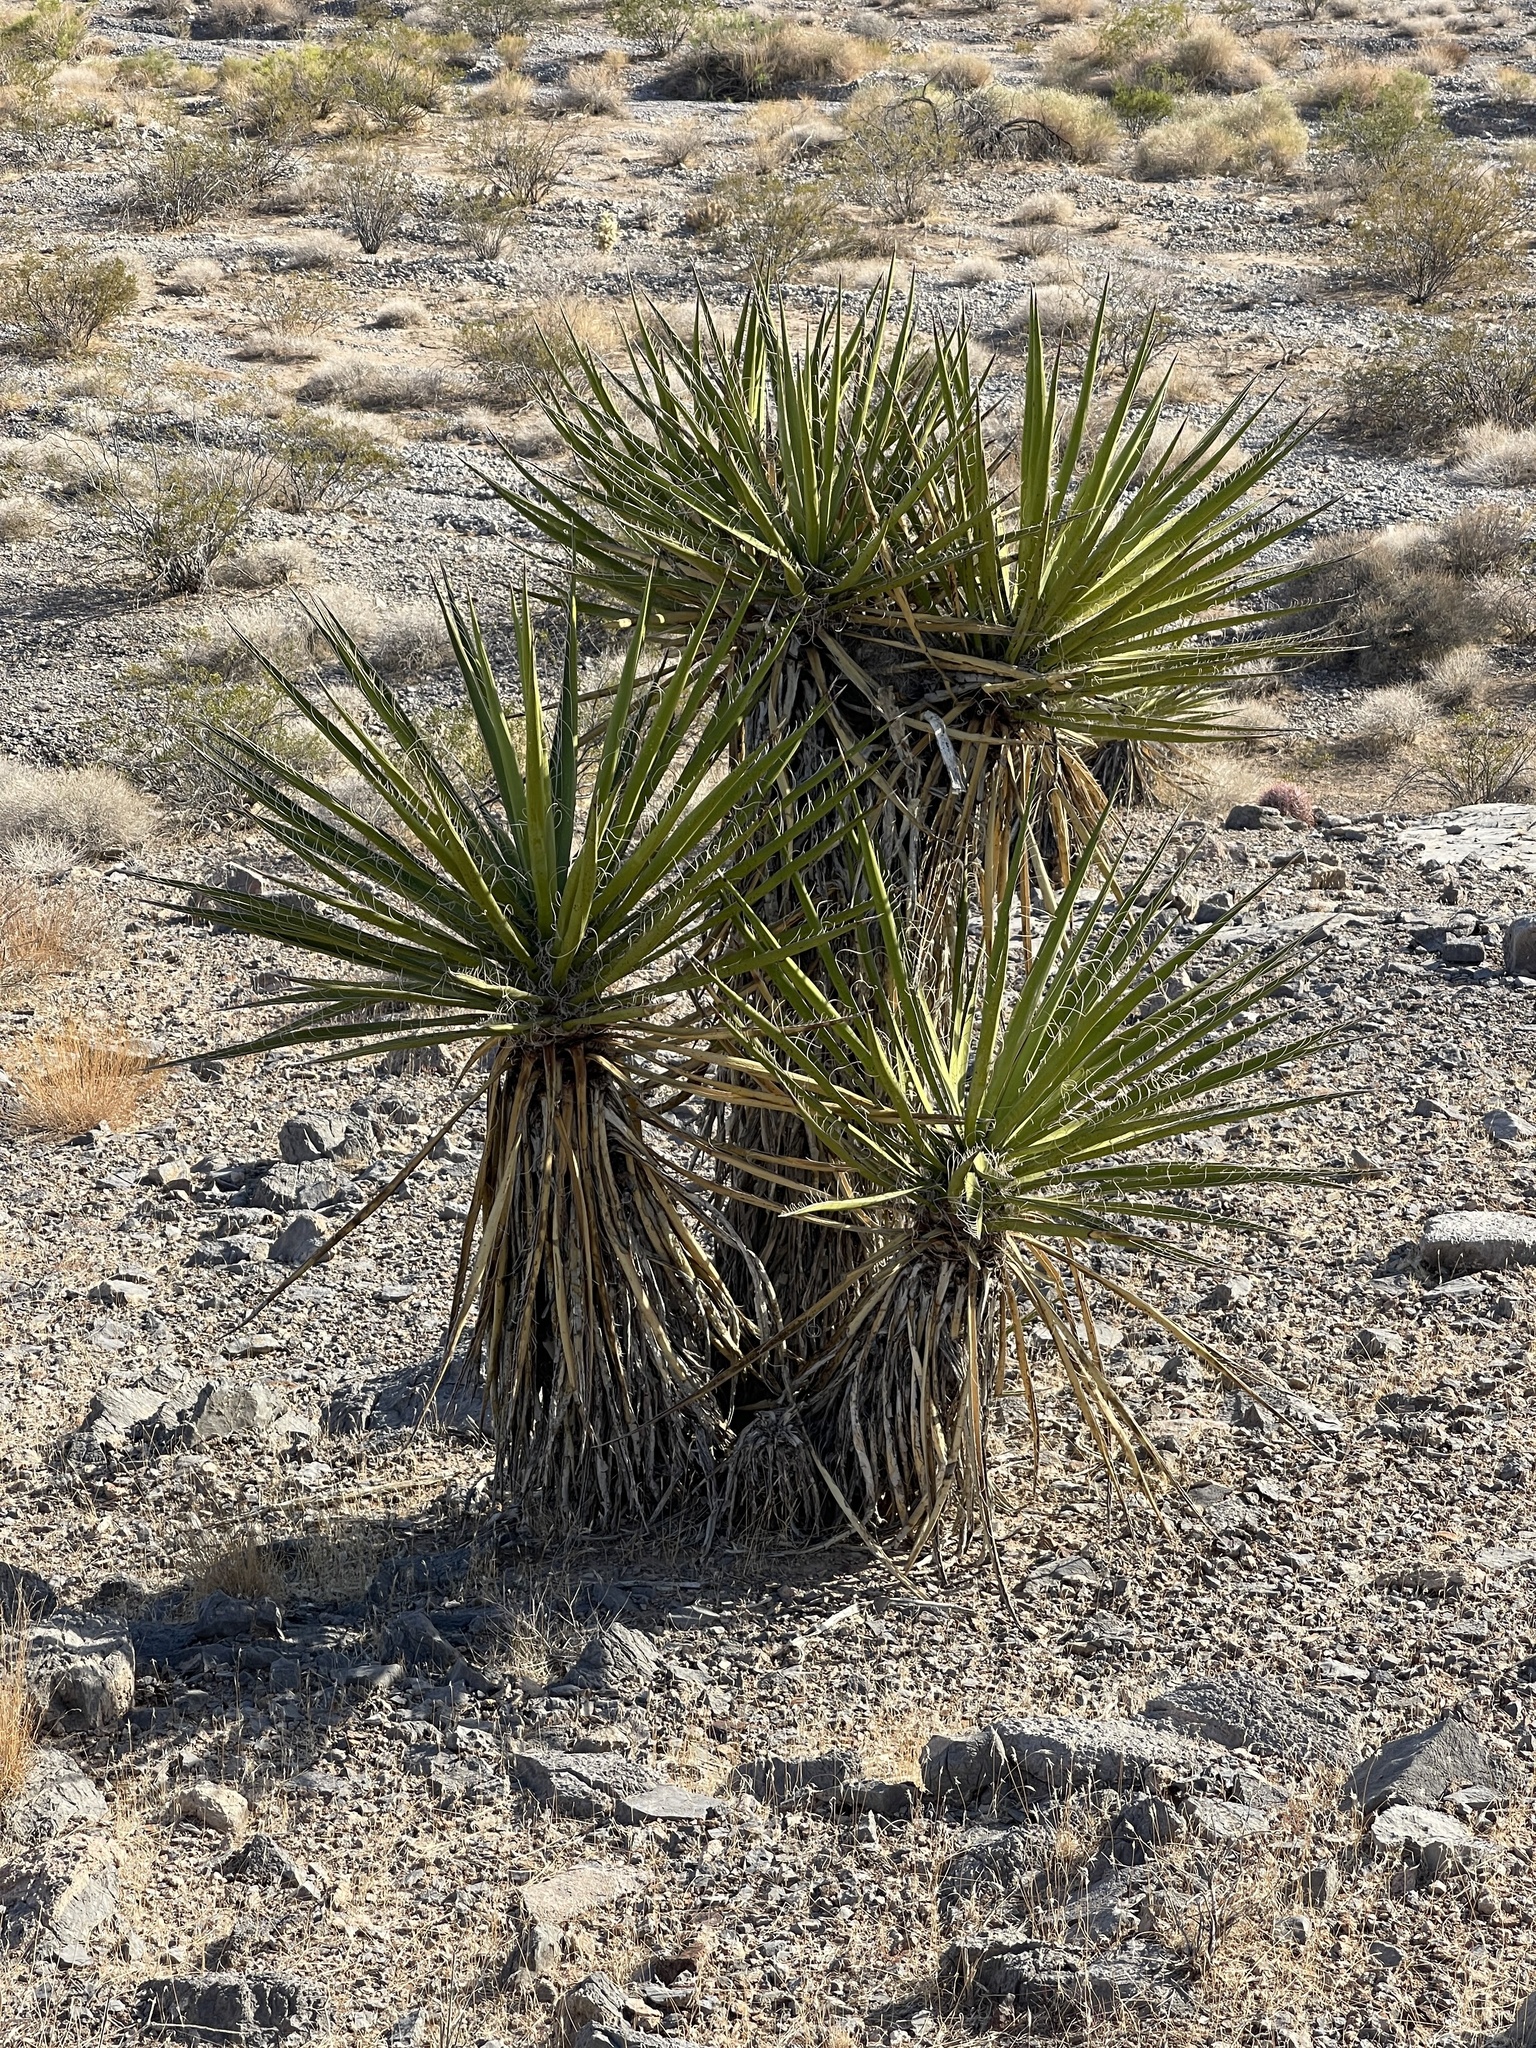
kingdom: Plantae
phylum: Tracheophyta
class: Liliopsida
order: Asparagales
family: Asparagaceae
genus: Yucca
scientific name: Yucca schidigera
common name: Mojave yucca
